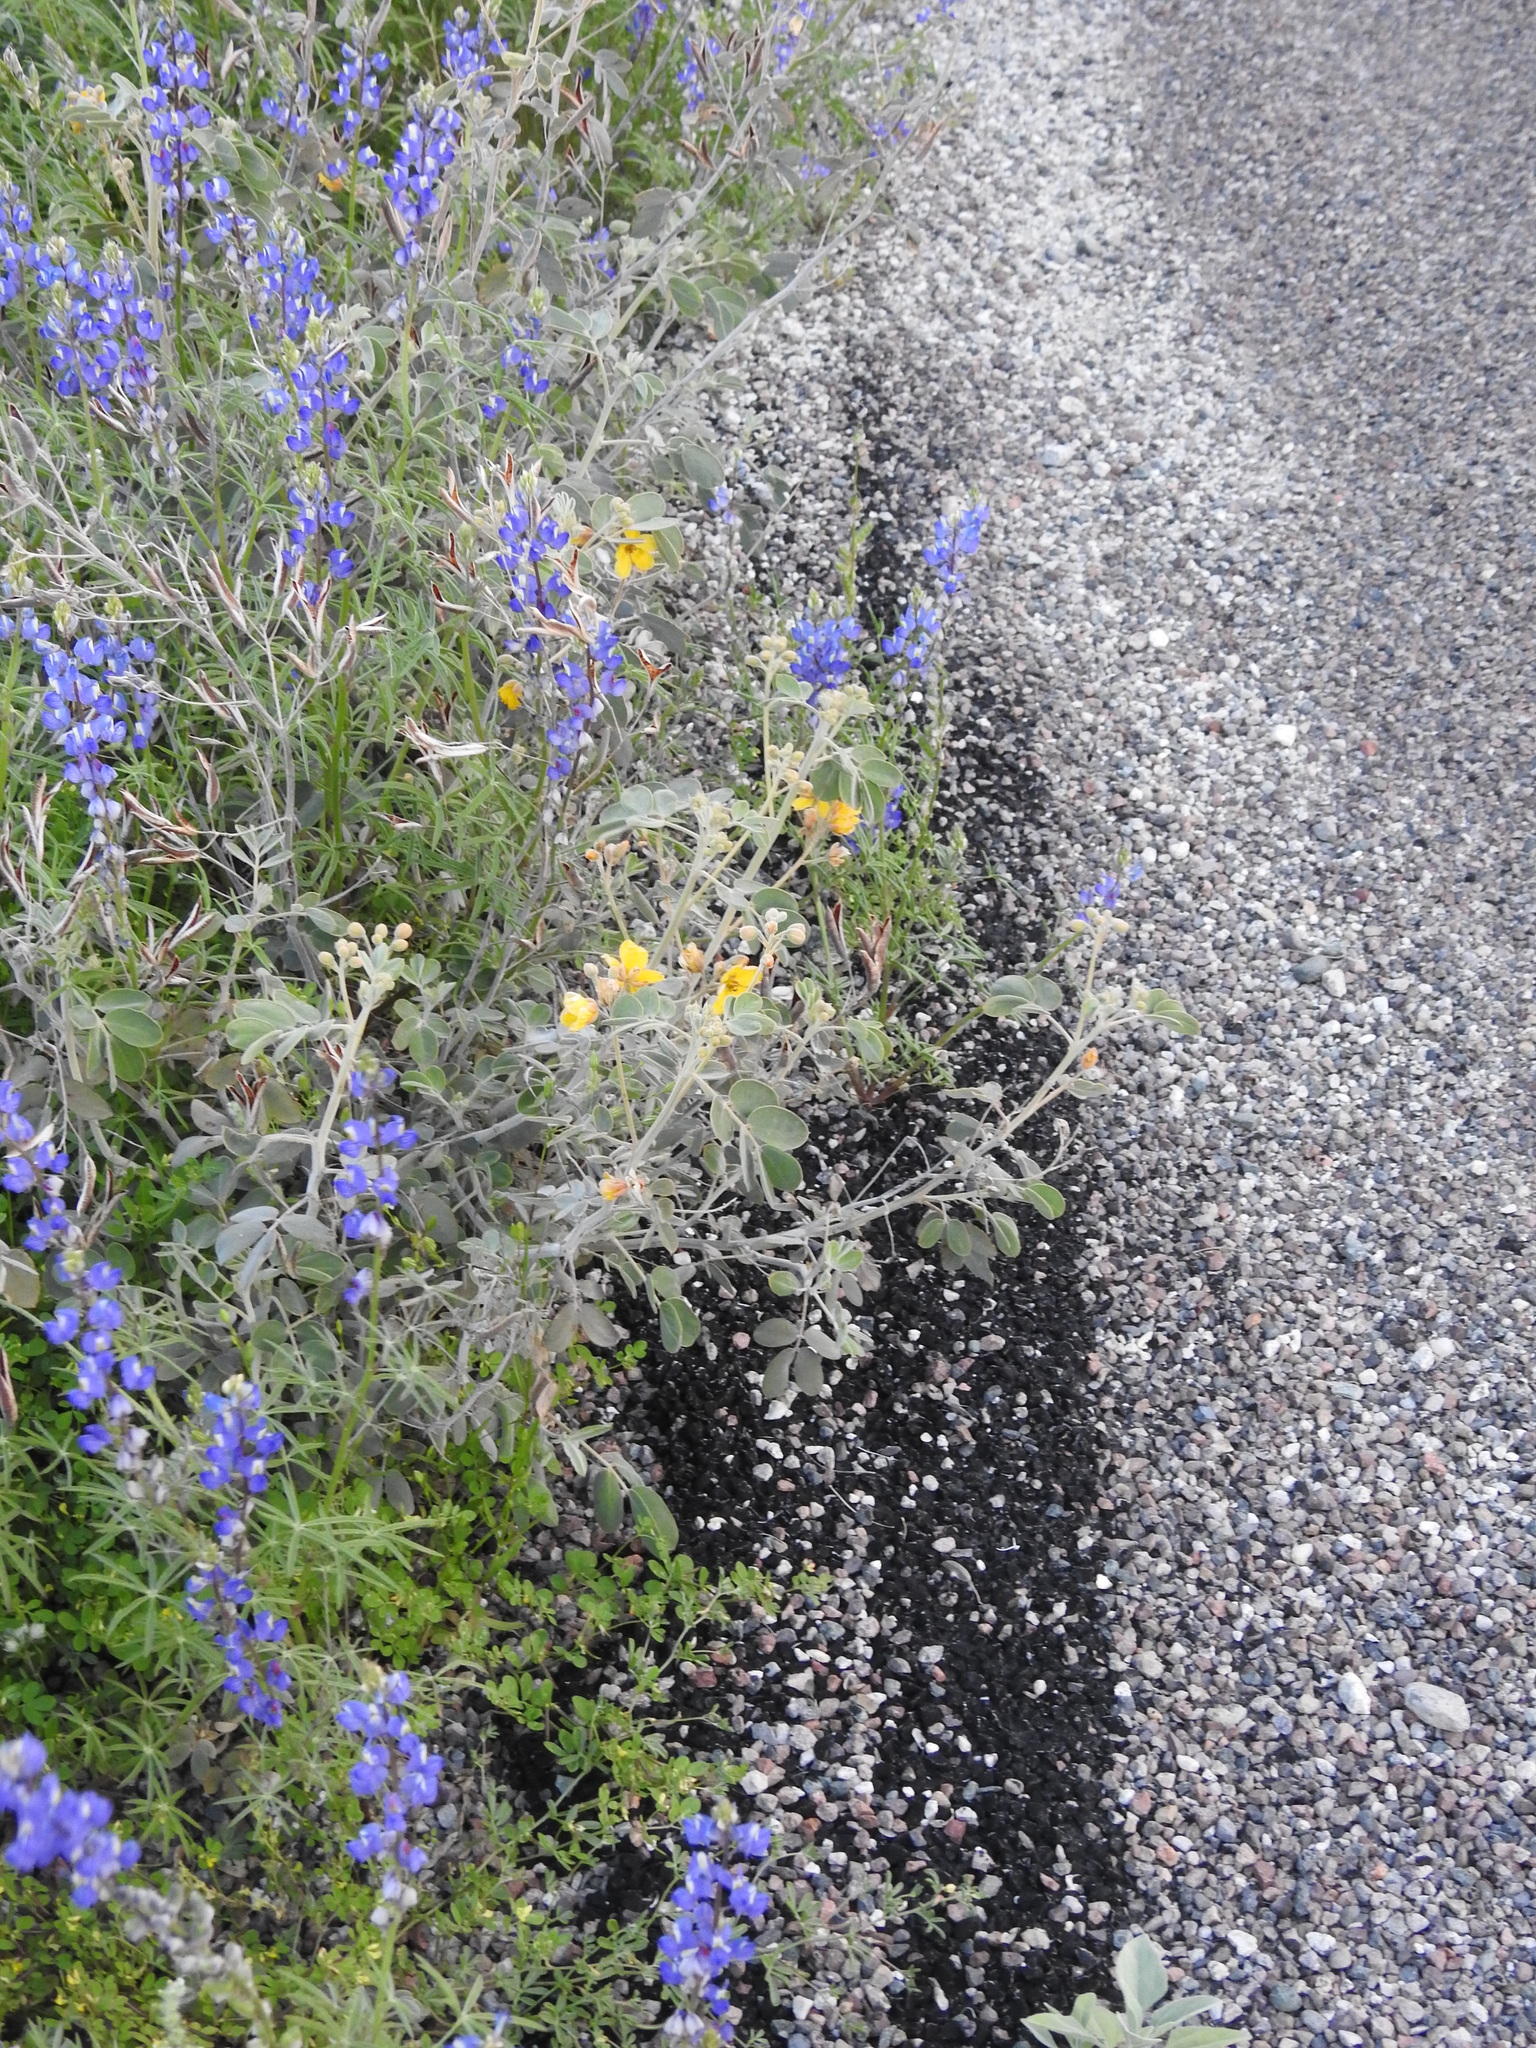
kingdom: Plantae
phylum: Tracheophyta
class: Magnoliopsida
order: Fabales
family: Fabaceae
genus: Senna
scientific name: Senna covesii
